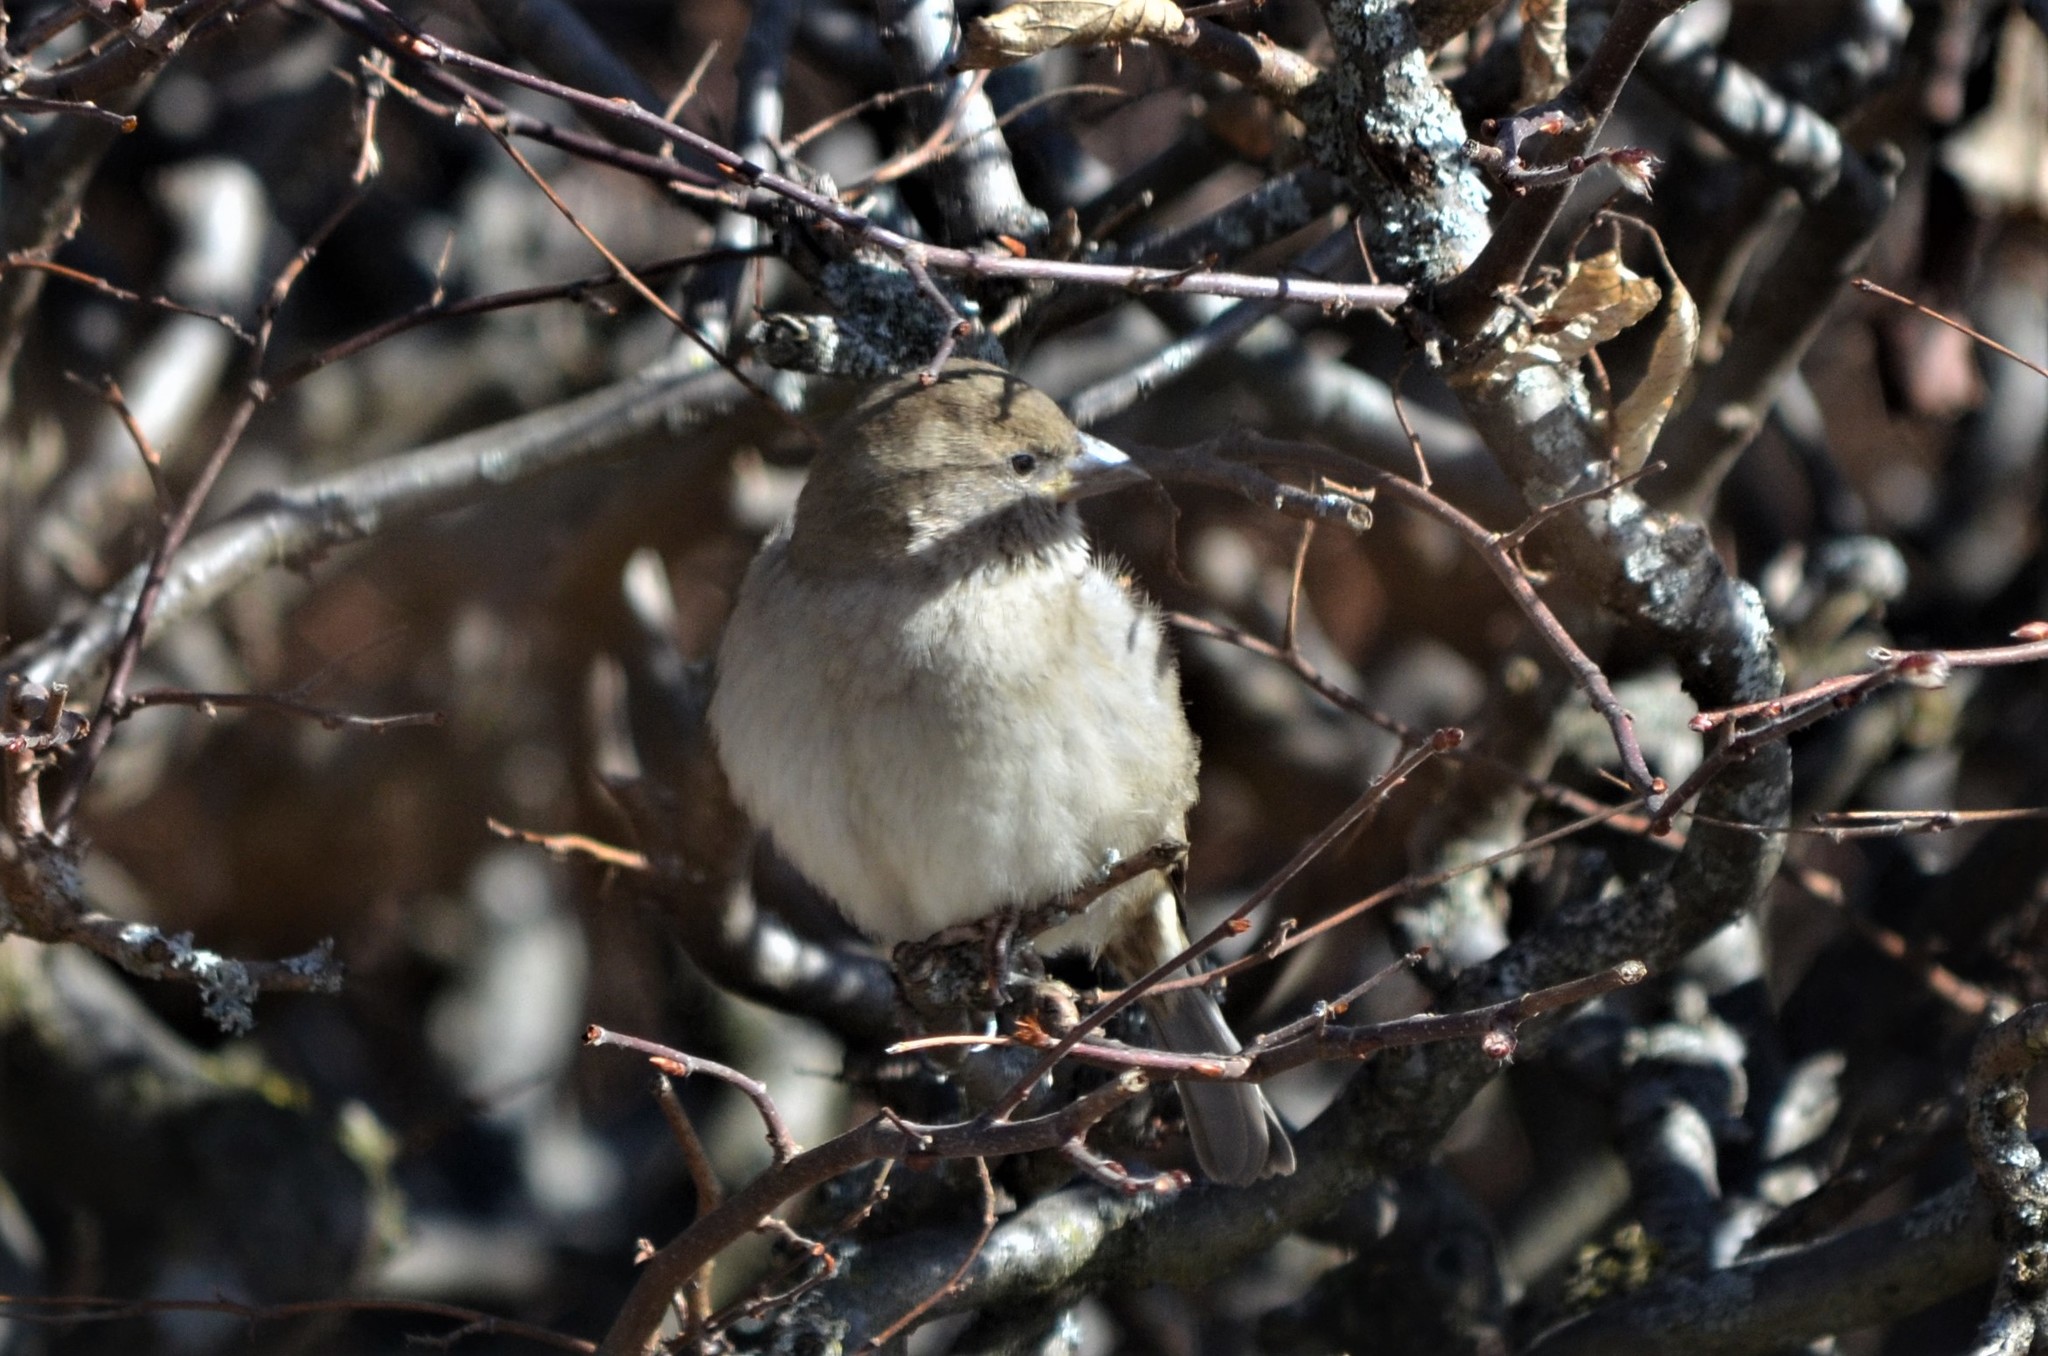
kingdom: Animalia
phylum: Chordata
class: Aves
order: Passeriformes
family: Passeridae
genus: Passer
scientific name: Passer domesticus
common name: House sparrow
